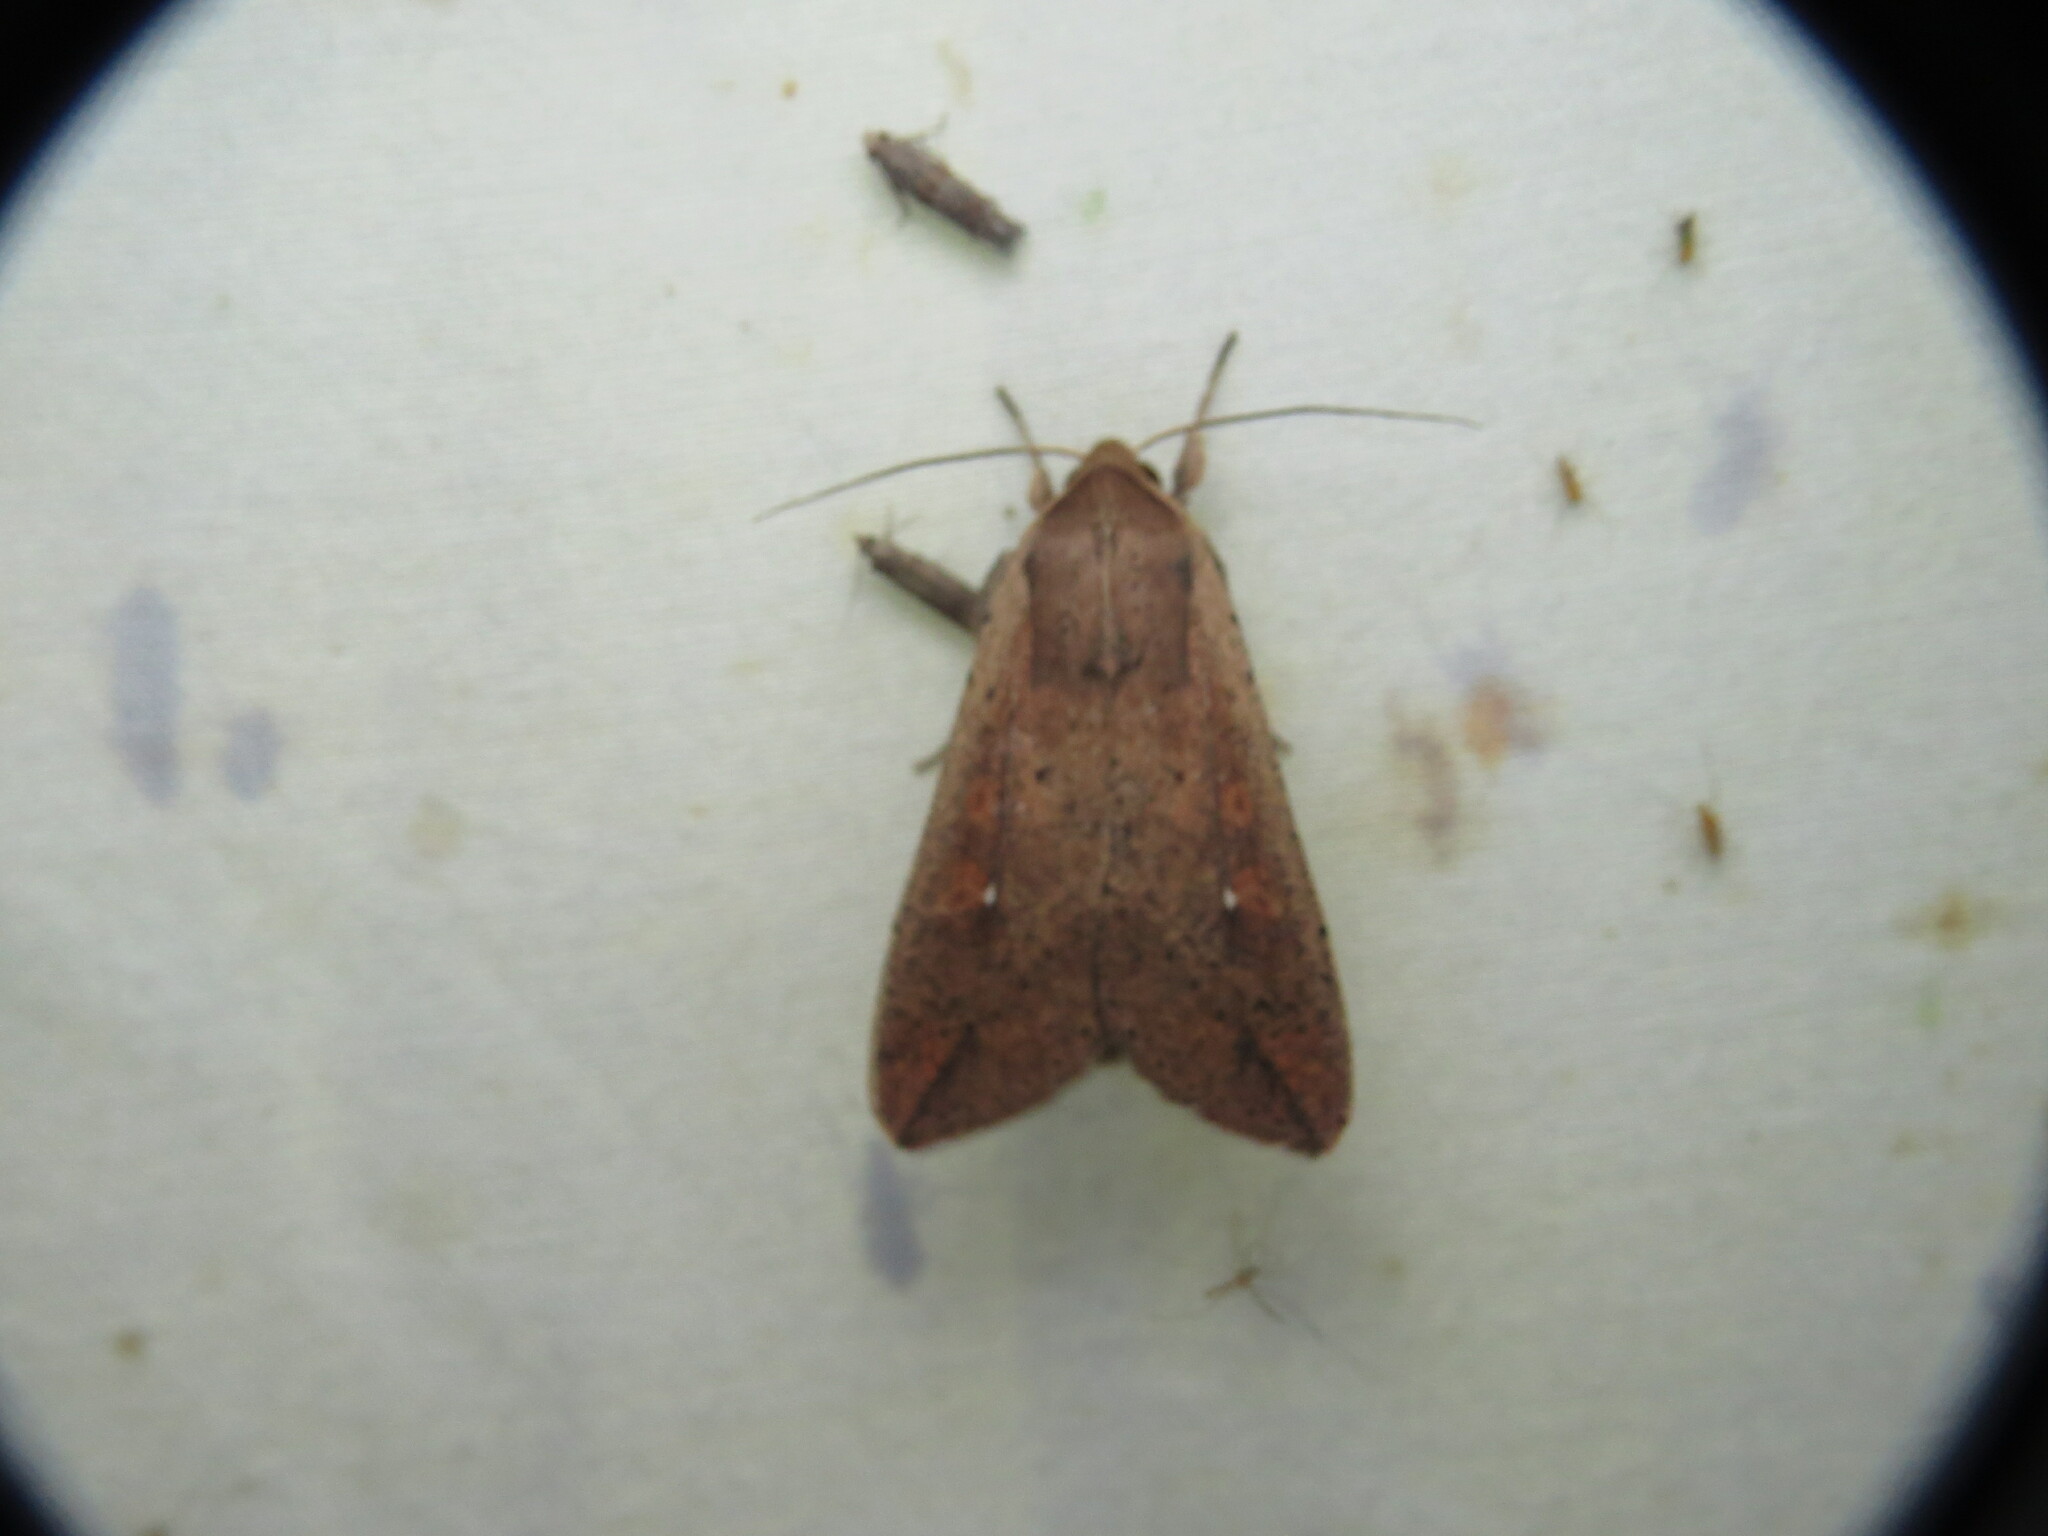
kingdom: Animalia
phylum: Arthropoda
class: Insecta
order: Lepidoptera
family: Noctuidae
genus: Mythimna
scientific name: Mythimna unipuncta
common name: White-speck
